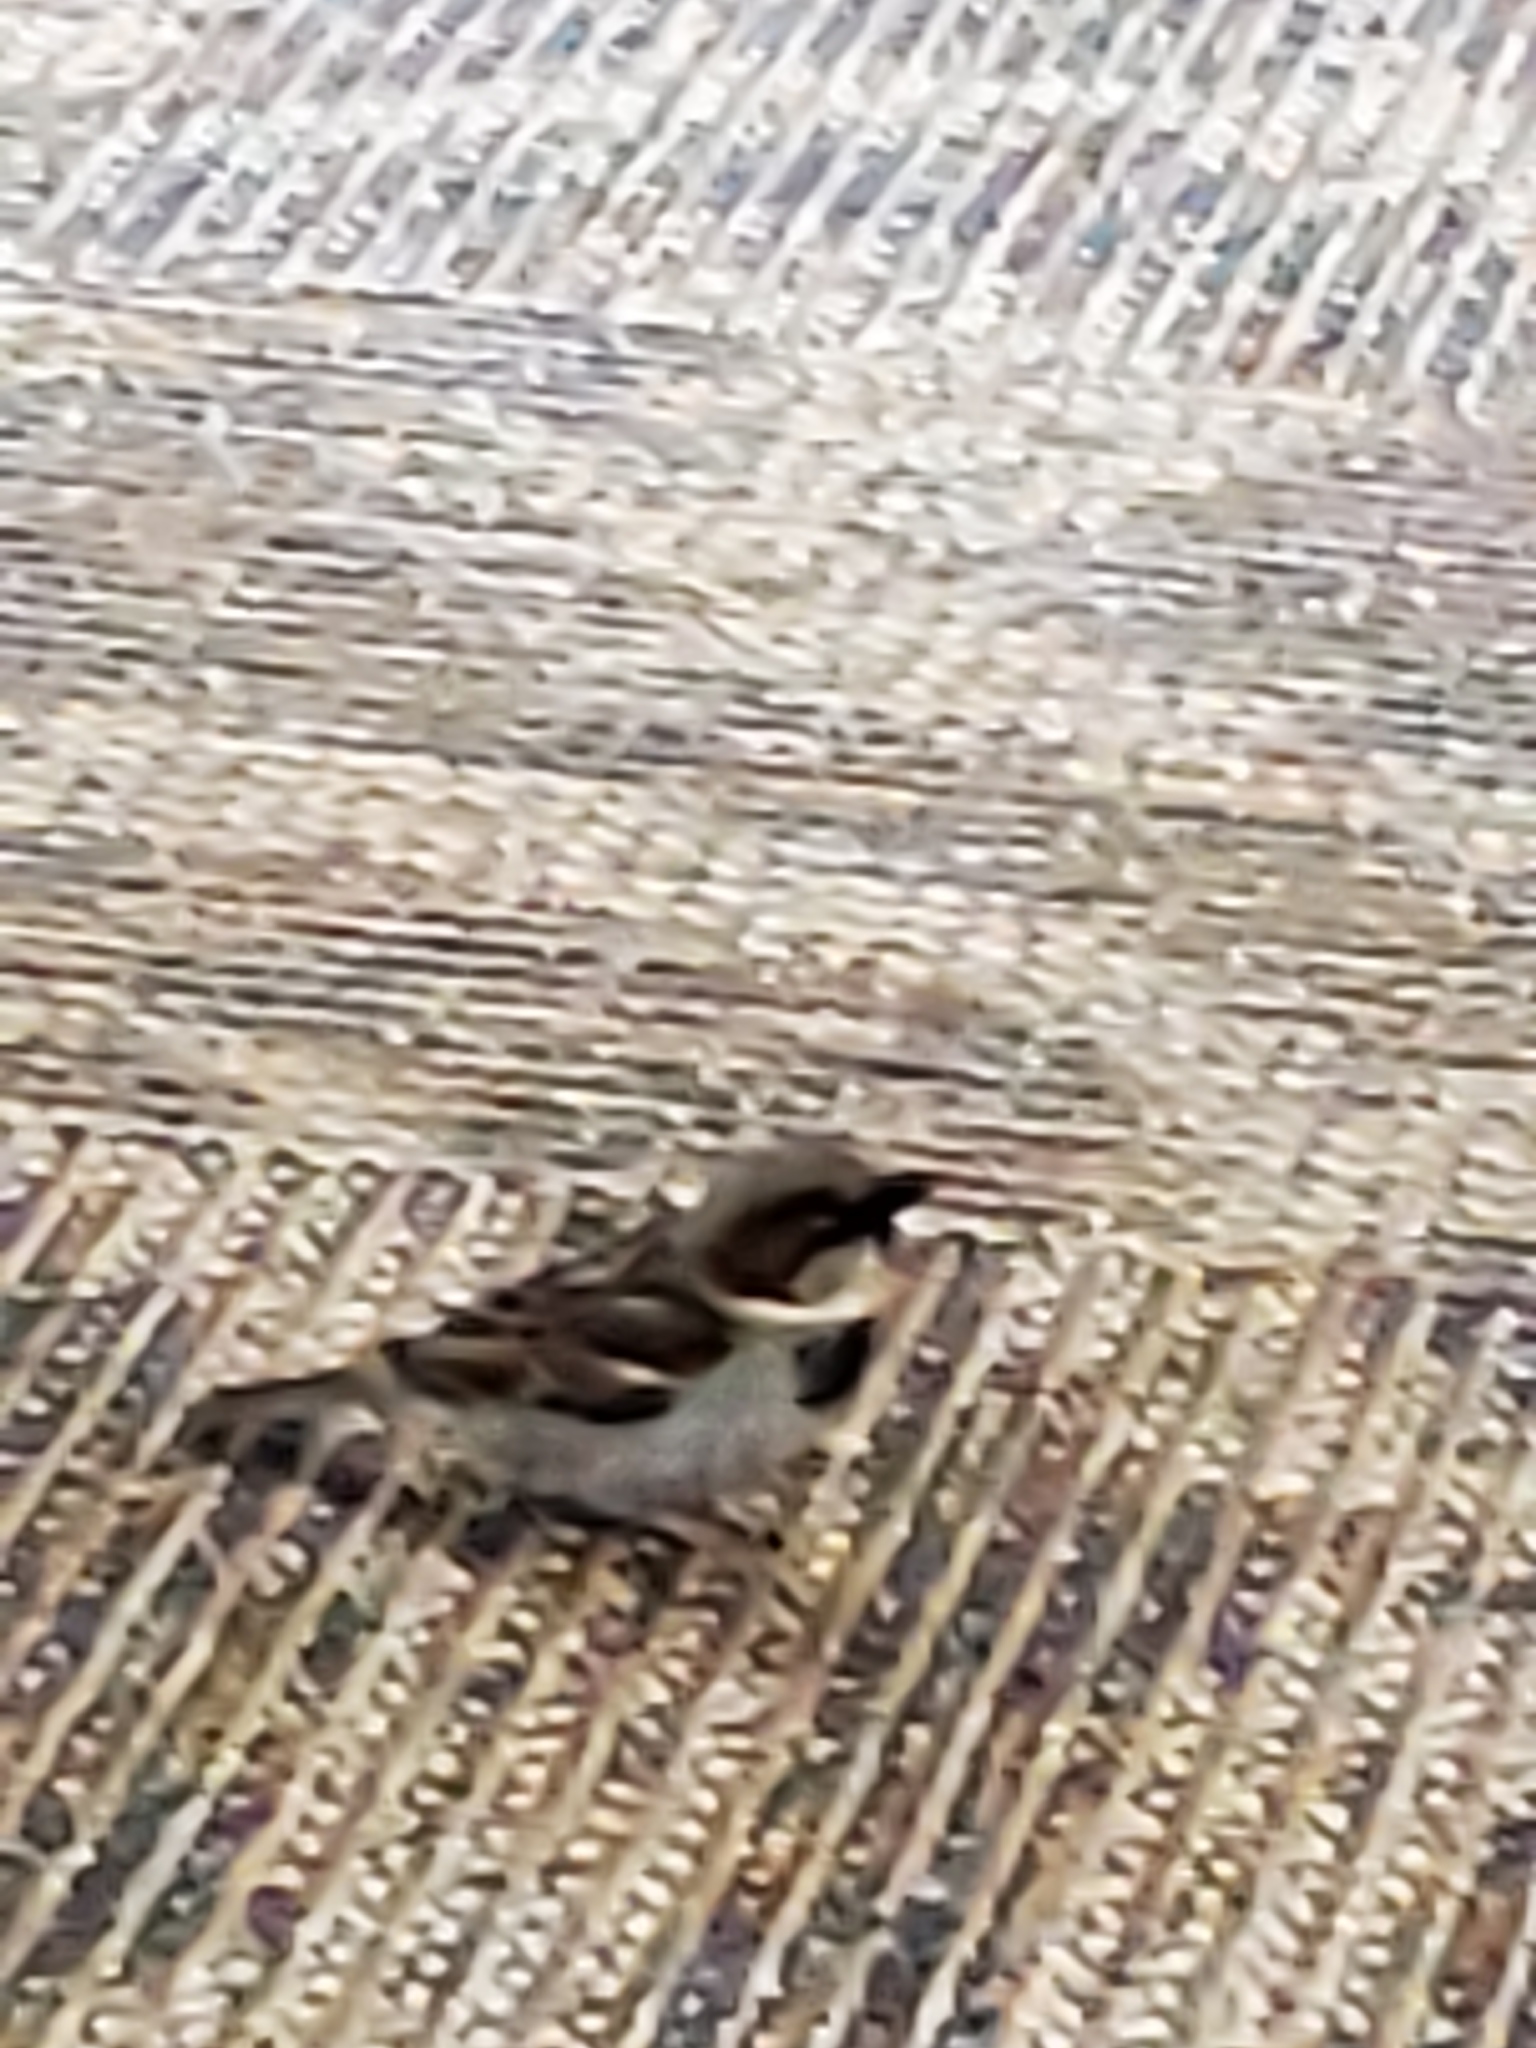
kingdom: Animalia
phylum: Chordata
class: Aves
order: Passeriformes
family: Passeridae
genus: Passer
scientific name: Passer domesticus
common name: House sparrow
